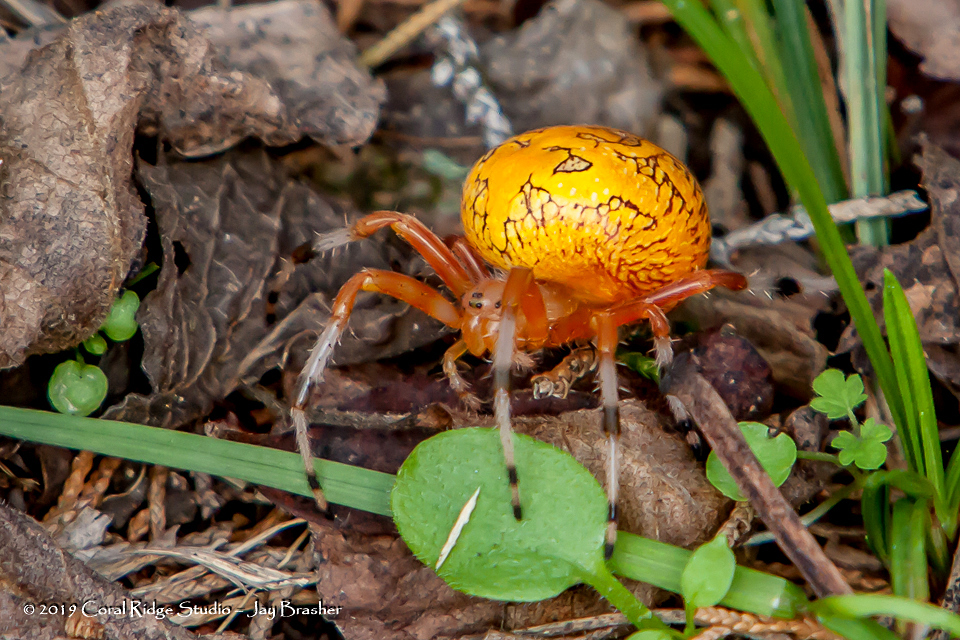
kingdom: Animalia
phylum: Arthropoda
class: Arachnida
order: Araneae
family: Araneidae
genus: Araneus
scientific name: Araneus marmoreus
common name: Marbled orbweaver
